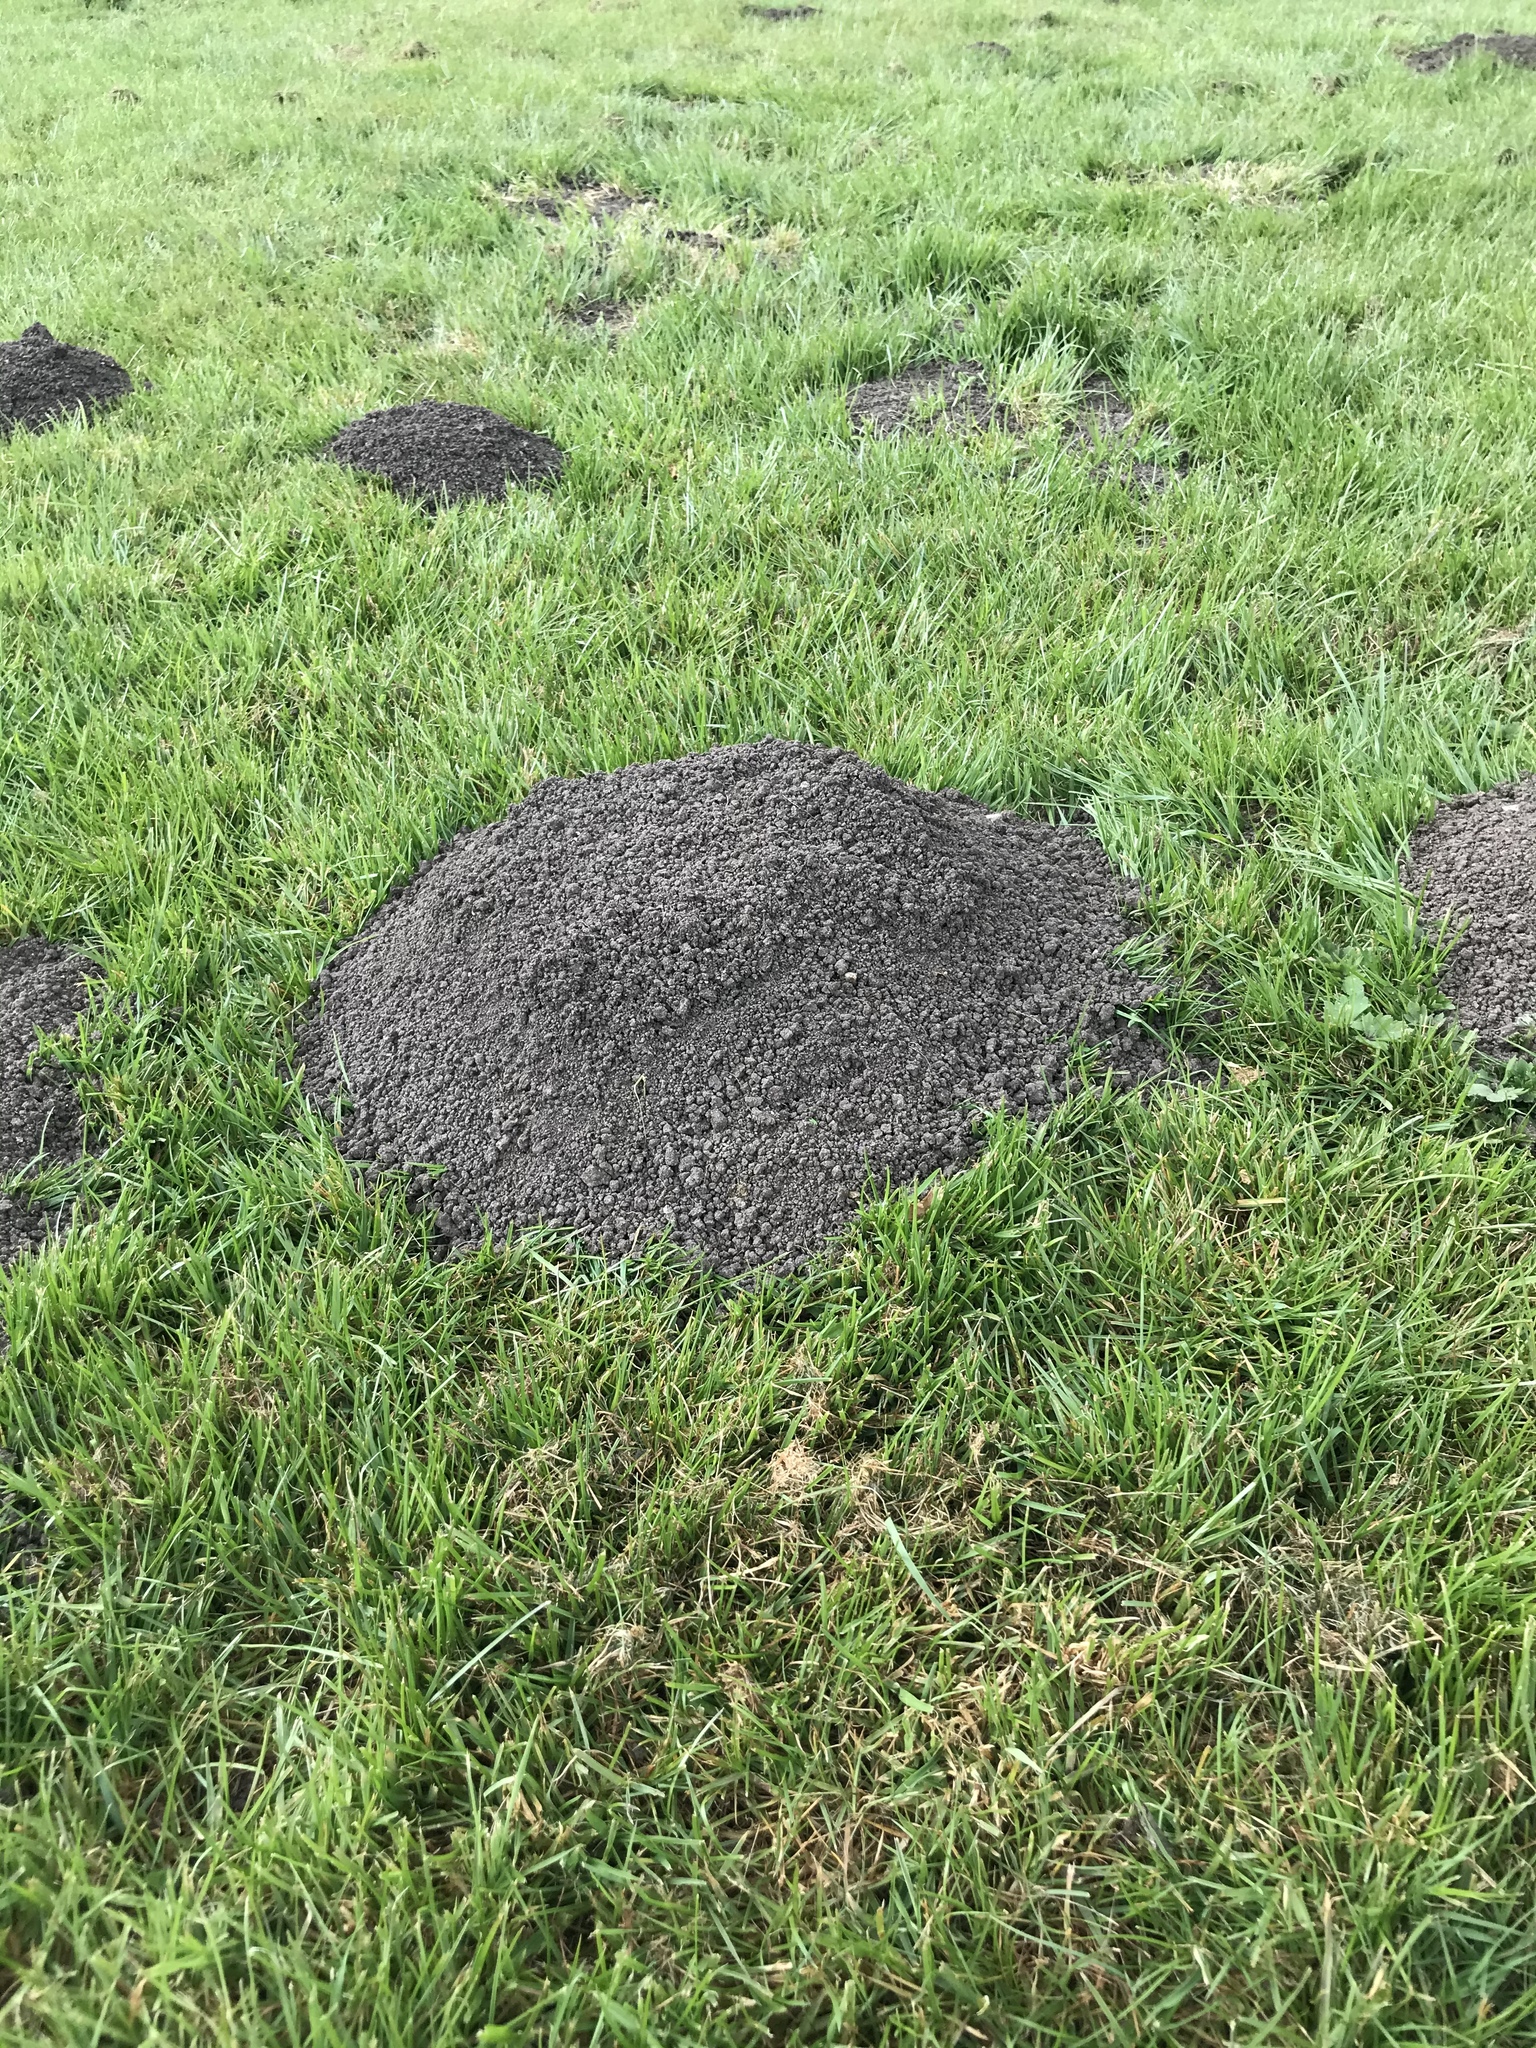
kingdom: Animalia
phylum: Chordata
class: Mammalia
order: Soricomorpha
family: Talpidae
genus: Talpa
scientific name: Talpa europaea
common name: European mole
